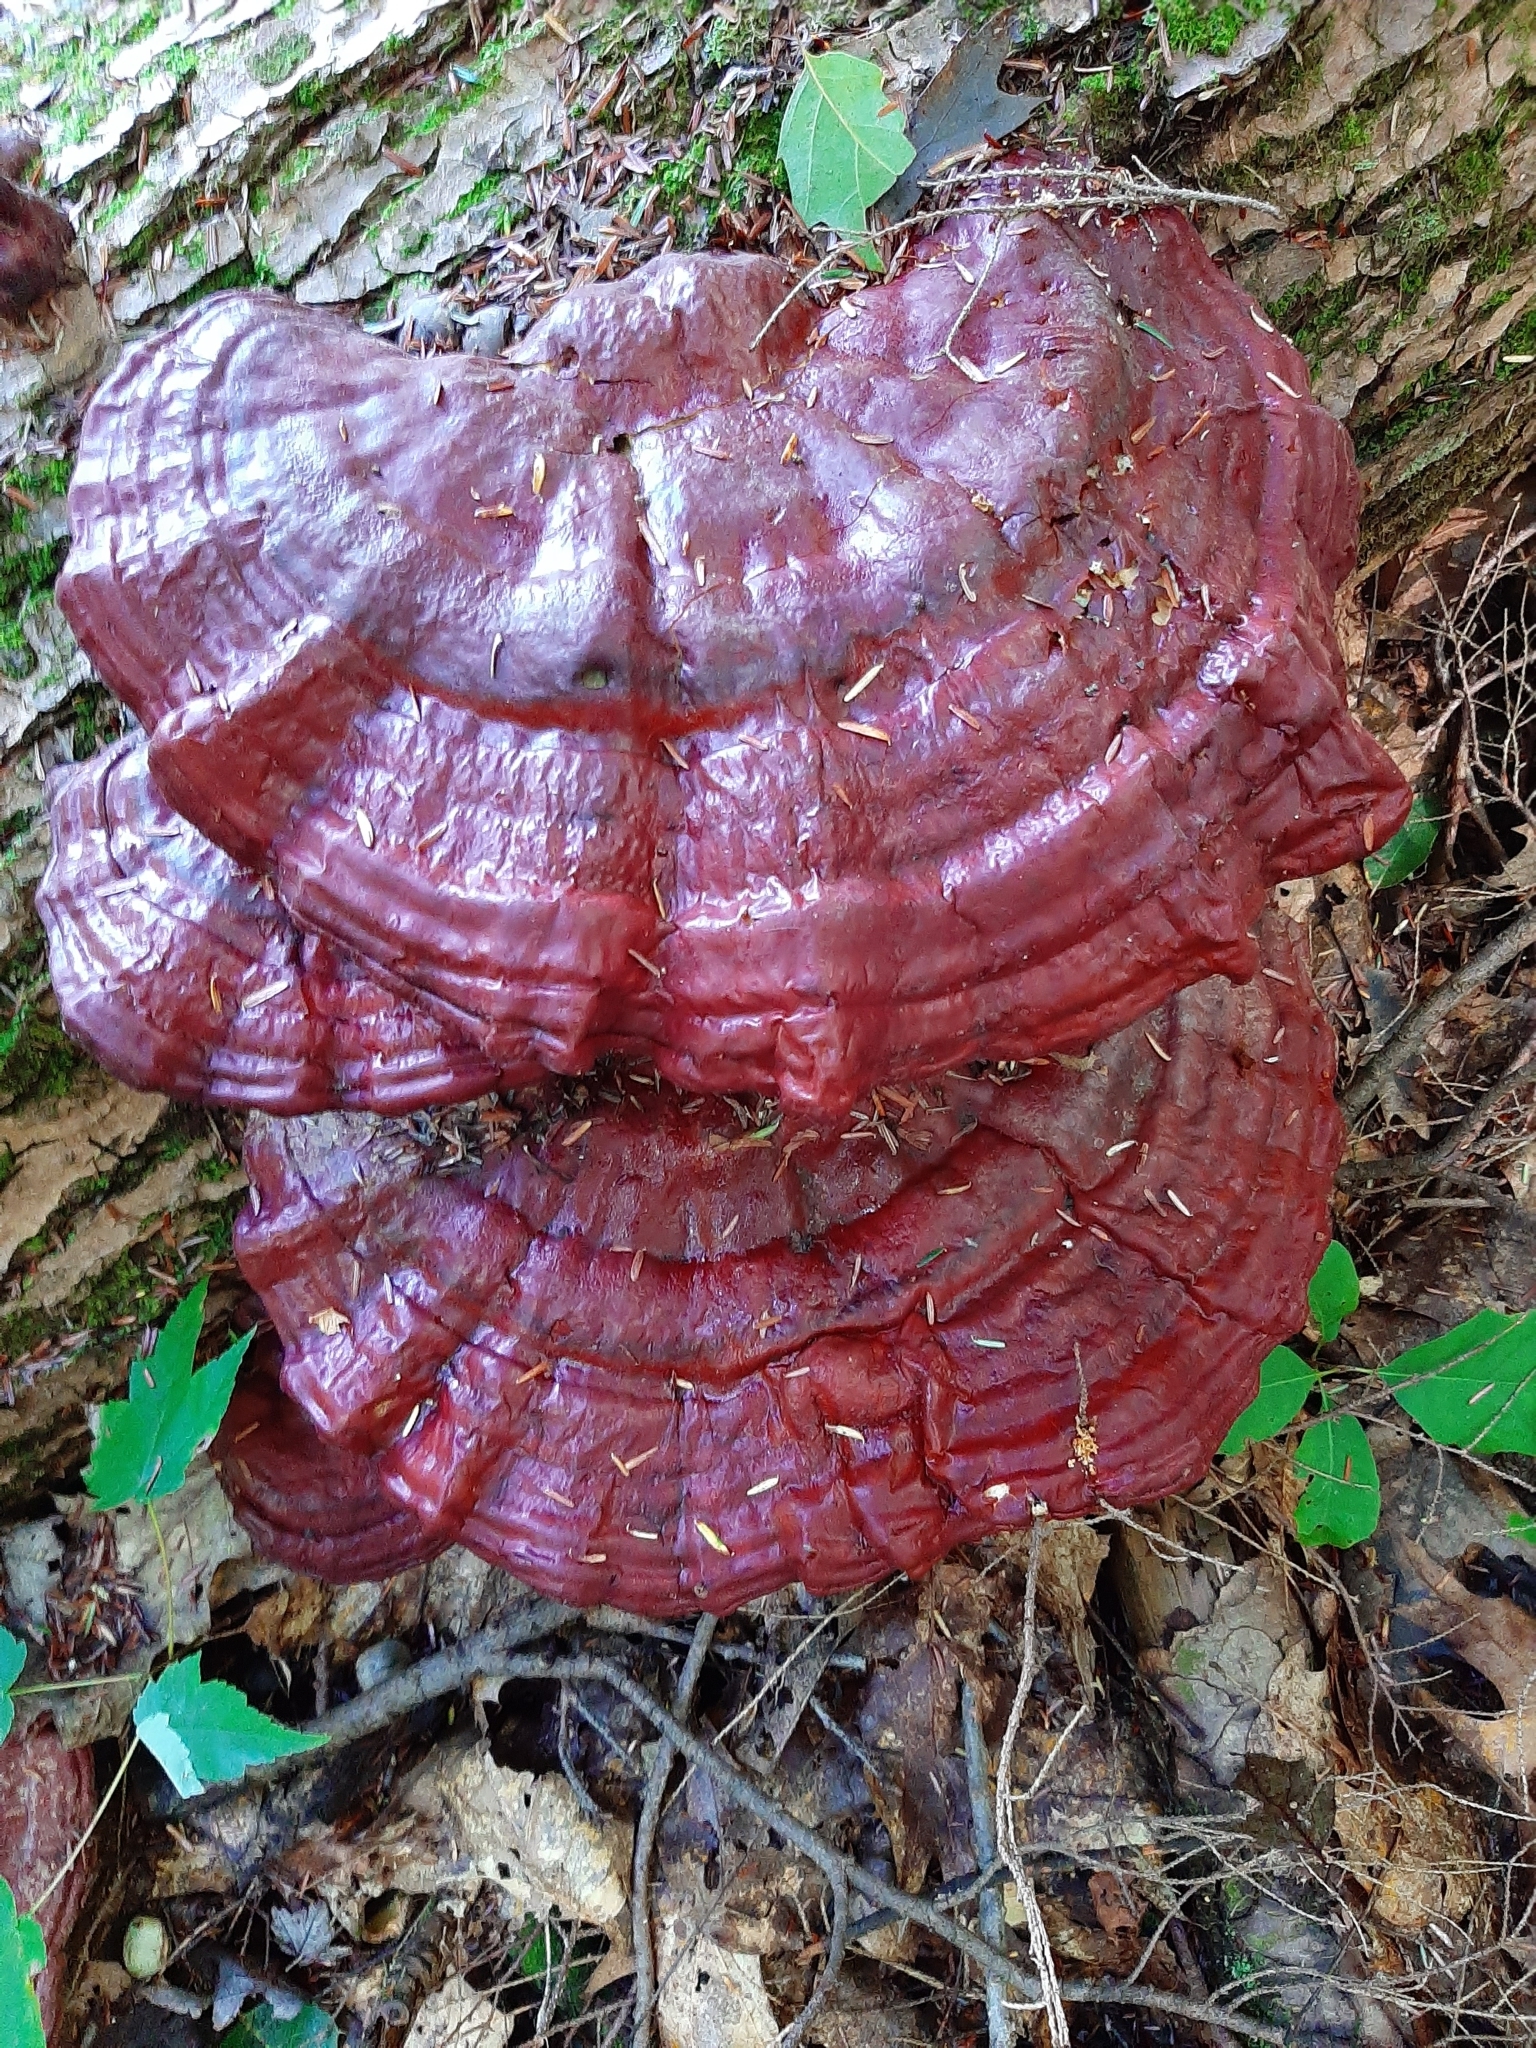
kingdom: Fungi
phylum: Basidiomycota
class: Agaricomycetes
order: Polyporales
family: Polyporaceae
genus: Ganoderma
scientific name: Ganoderma tsugae
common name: Hemlock varnish shelf
